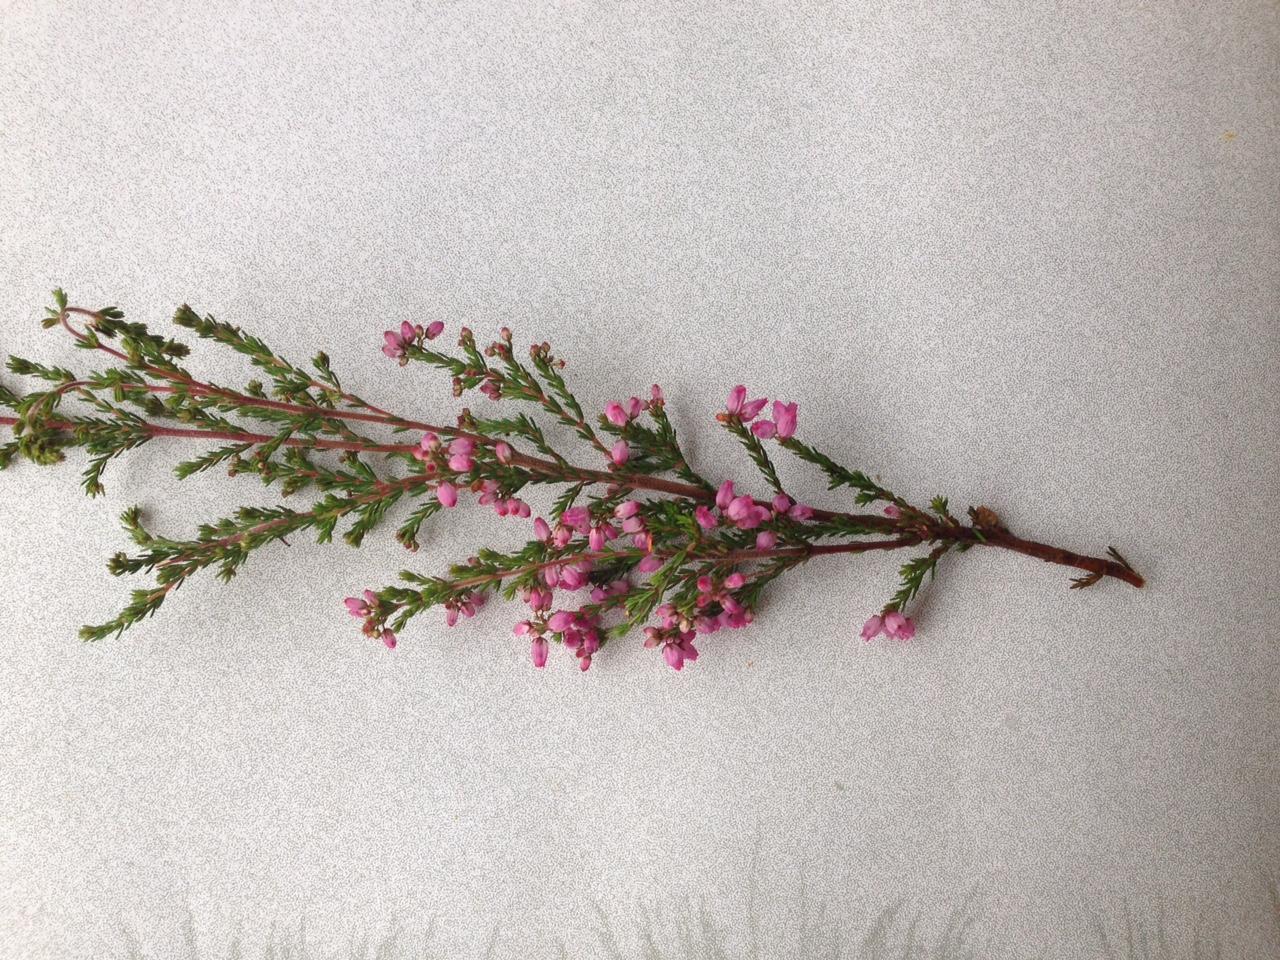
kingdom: Plantae
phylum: Tracheophyta
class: Magnoliopsida
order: Ericales
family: Ericaceae
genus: Erica
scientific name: Erica gracilis
